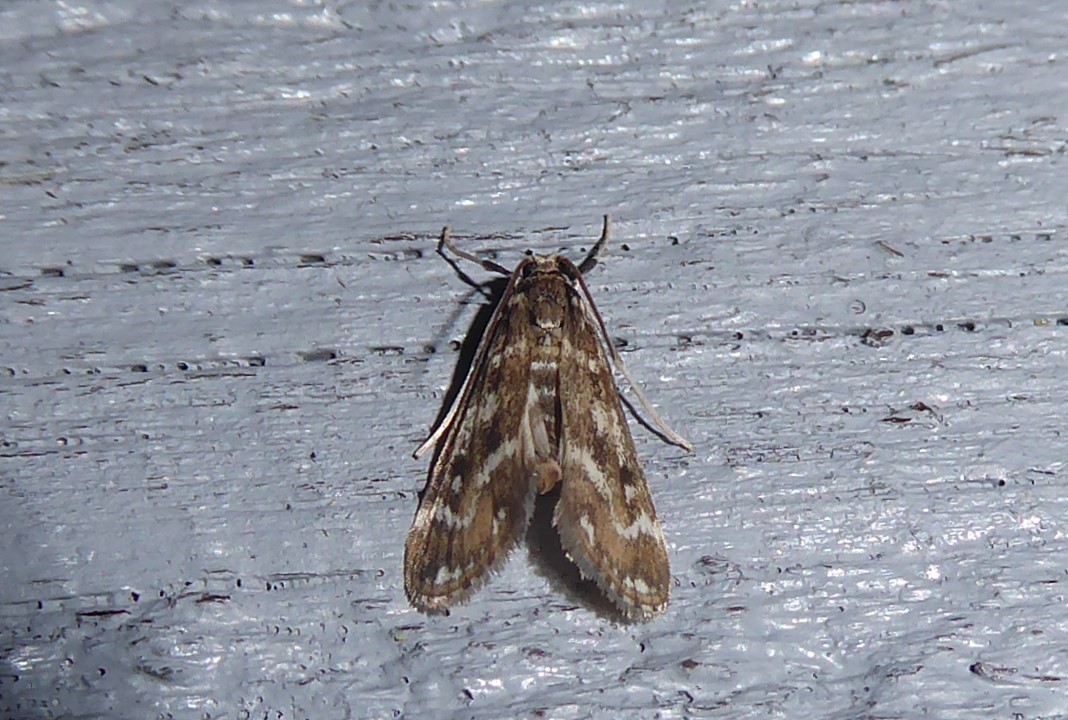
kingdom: Animalia
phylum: Arthropoda
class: Insecta
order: Lepidoptera
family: Crambidae
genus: Hygraula
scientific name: Hygraula nitens
